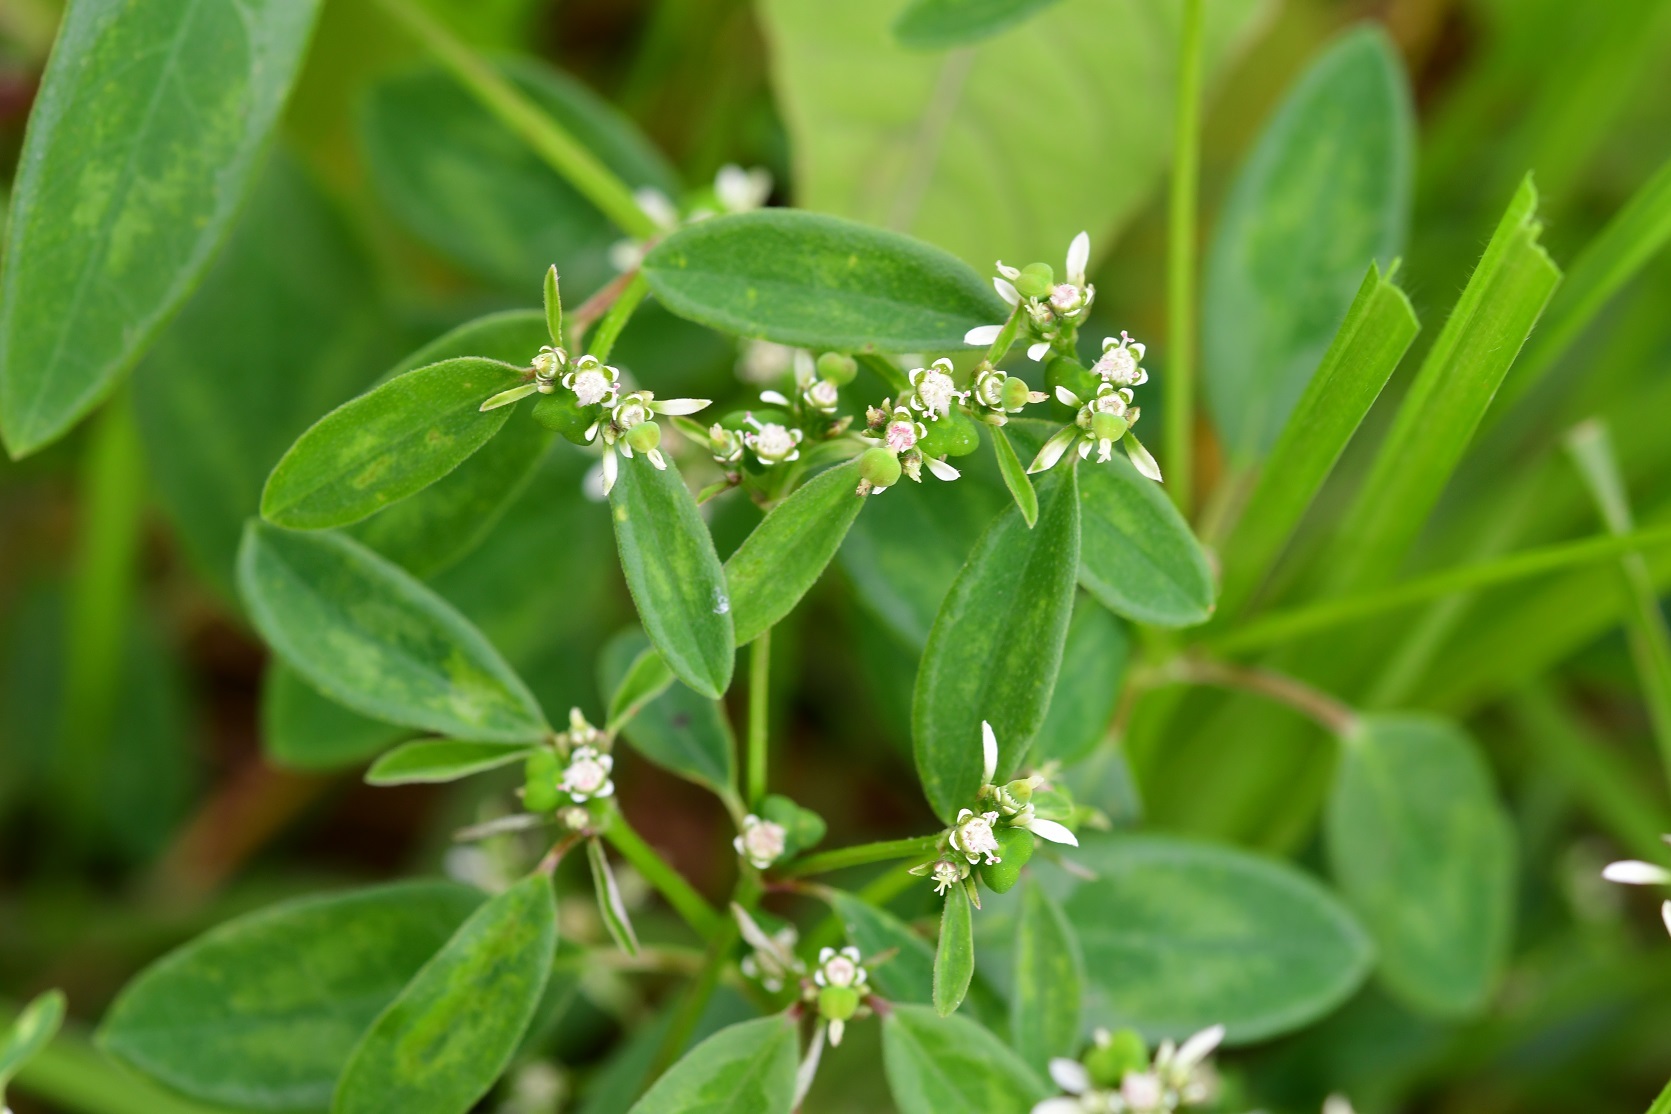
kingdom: Plantae
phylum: Tracheophyta
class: Magnoliopsida
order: Malpighiales
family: Euphorbiaceae
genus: Euphorbia
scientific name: Euphorbia graminea
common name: Grassleaf spurge
